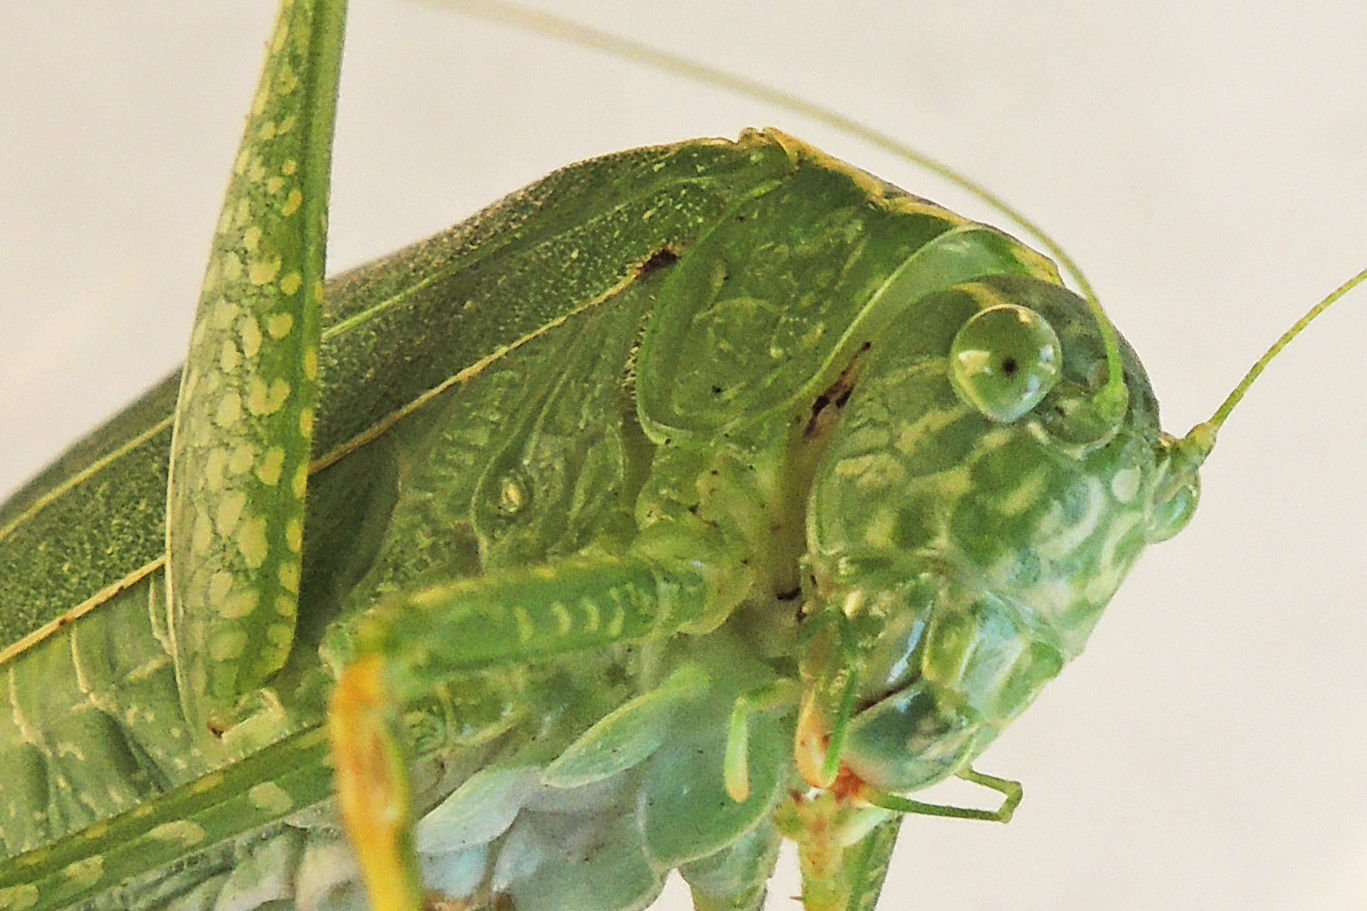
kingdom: Animalia
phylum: Arthropoda
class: Insecta
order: Orthoptera
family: Tettigoniidae
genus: Microcentrum
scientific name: Microcentrum rhombifolium
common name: Broad-winged katydid
